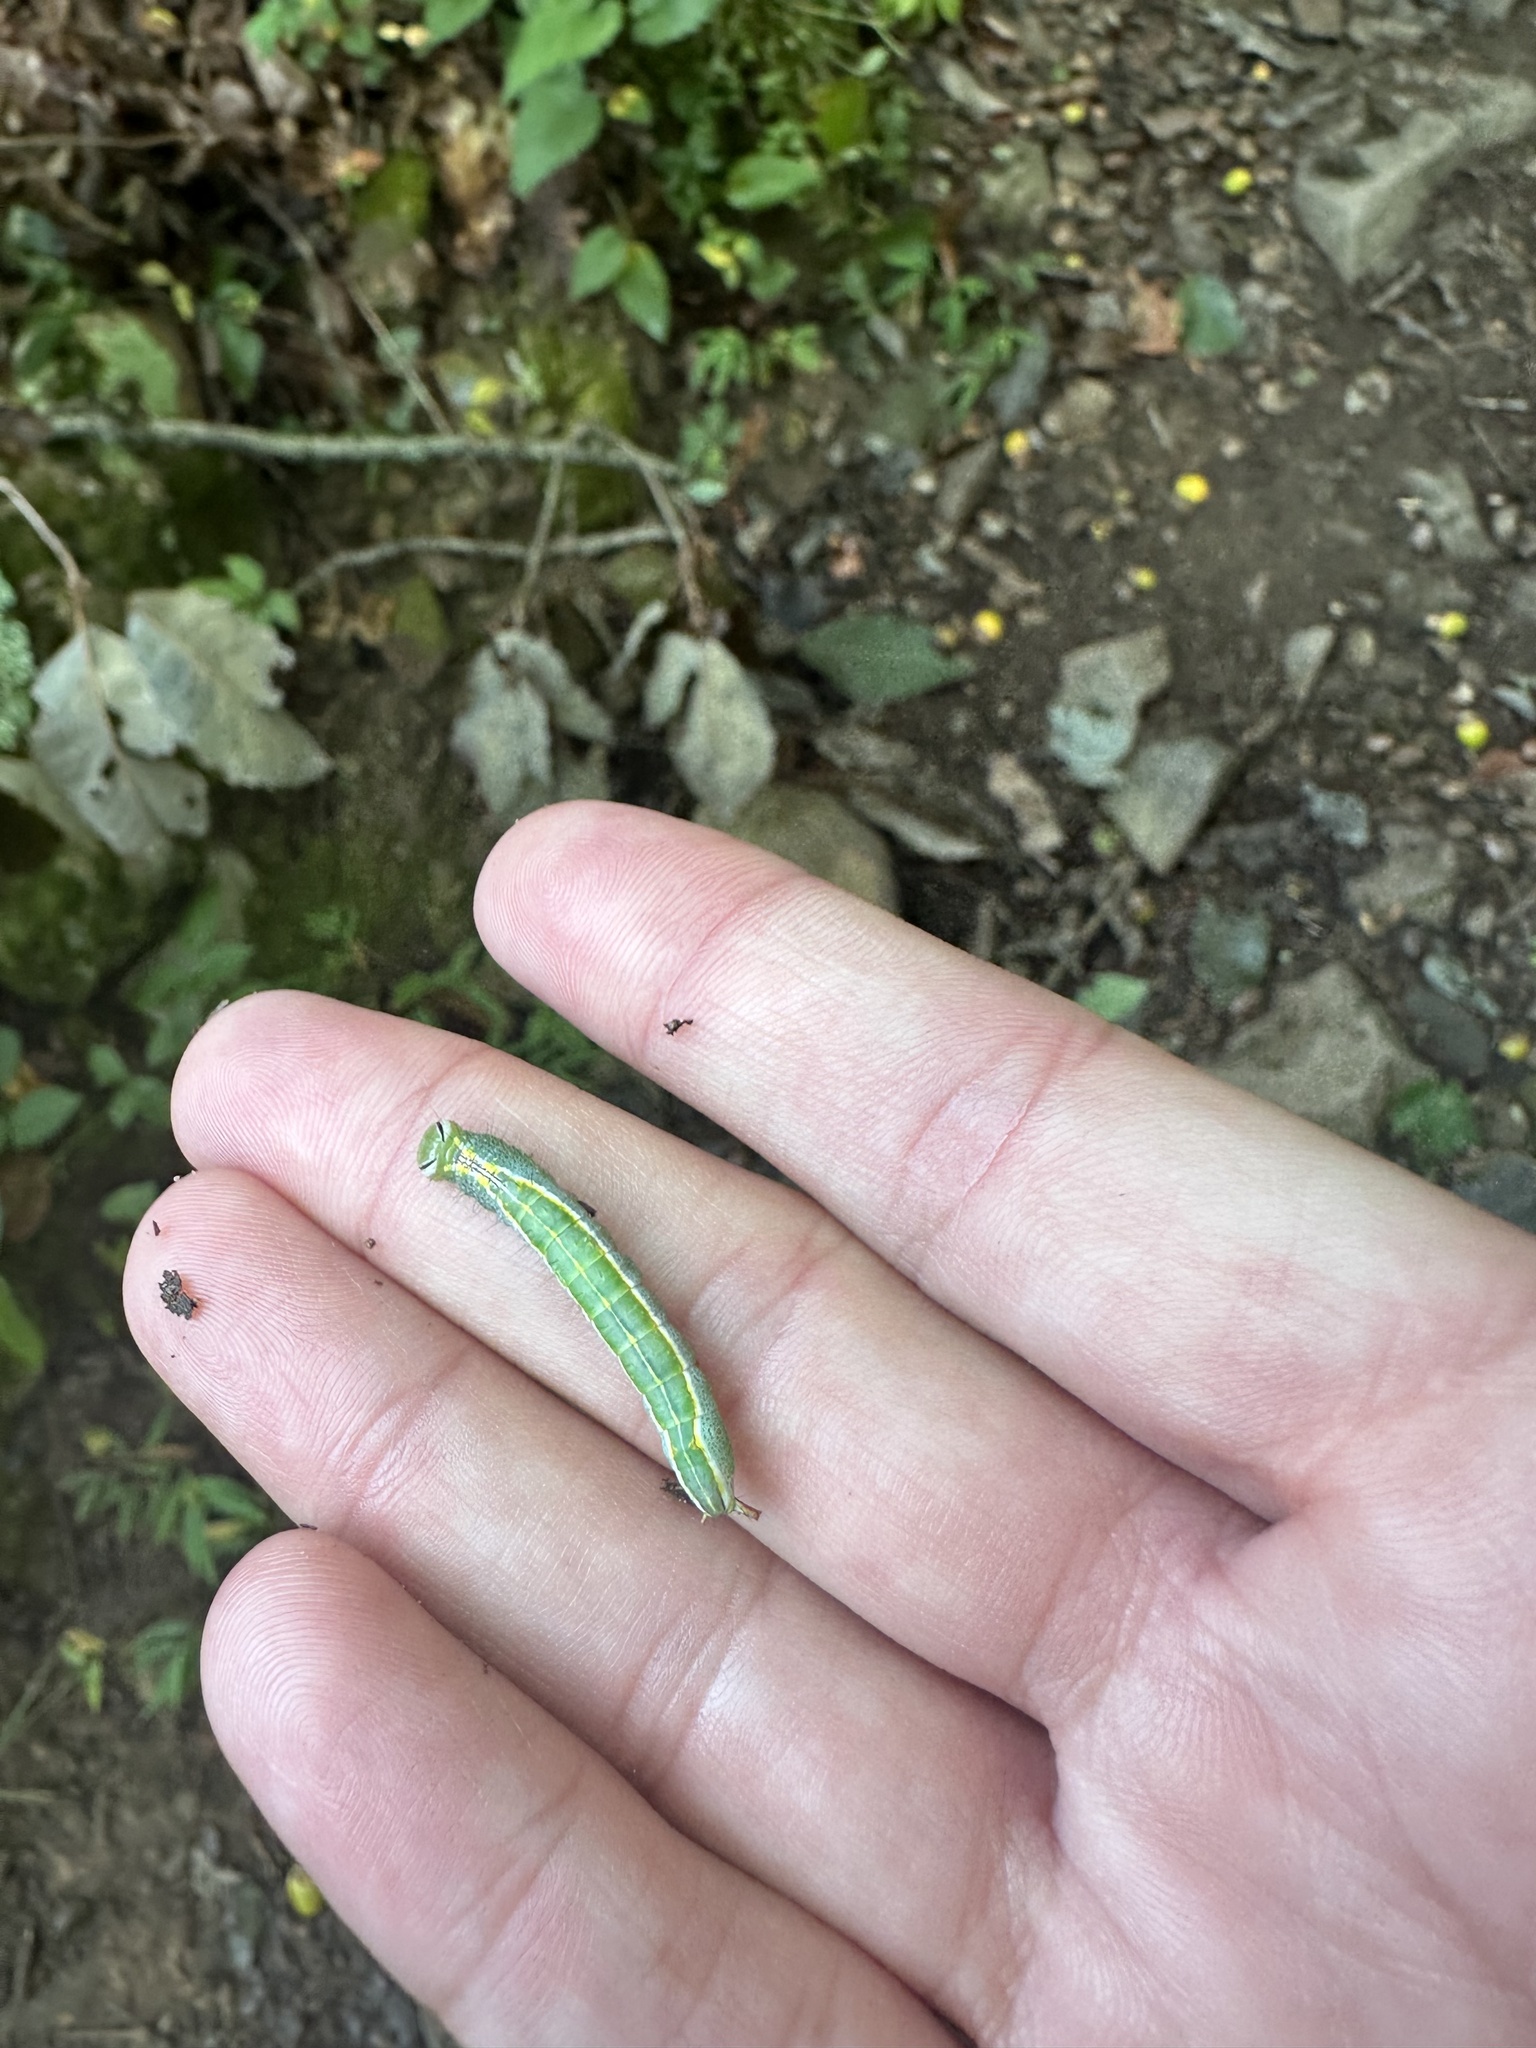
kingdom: Animalia
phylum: Arthropoda
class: Insecta
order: Lepidoptera
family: Notodontidae
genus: Lochmaeus
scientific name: Lochmaeus manteo
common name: Variable oakleaf caterpillar moth
